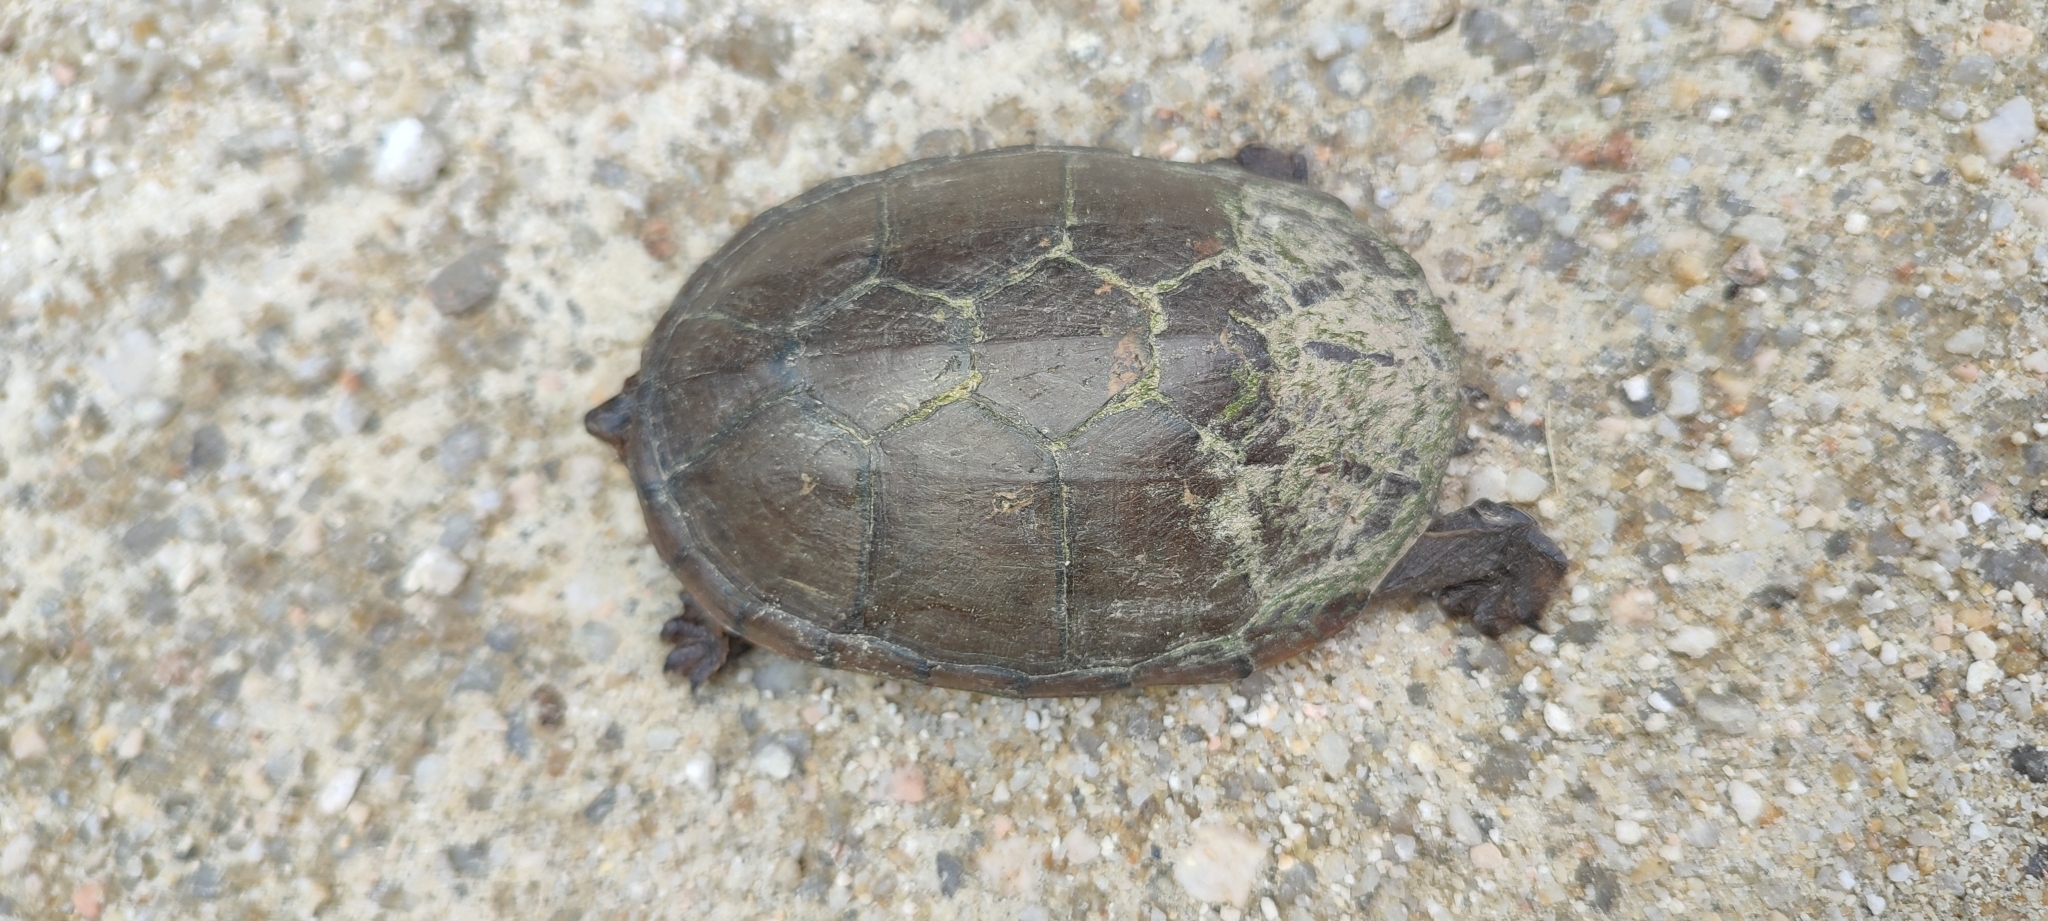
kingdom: Animalia
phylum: Chordata
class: Testudines
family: Kinosternidae
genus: Kinosternon
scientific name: Kinosternon chimalhuaca
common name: Jalisco mud turtle
